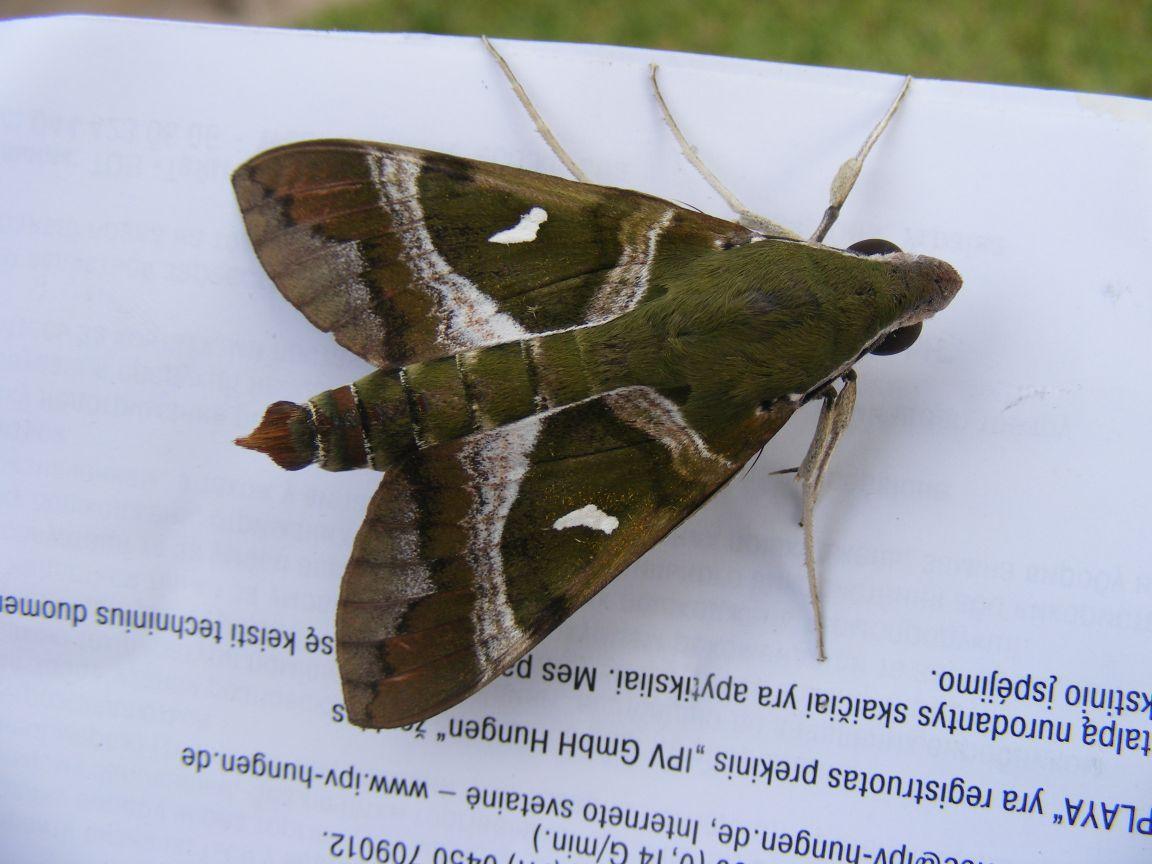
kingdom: Animalia
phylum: Arthropoda
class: Insecta
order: Lepidoptera
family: Sphingidae
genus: Nephele
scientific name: Nephele argentifera
